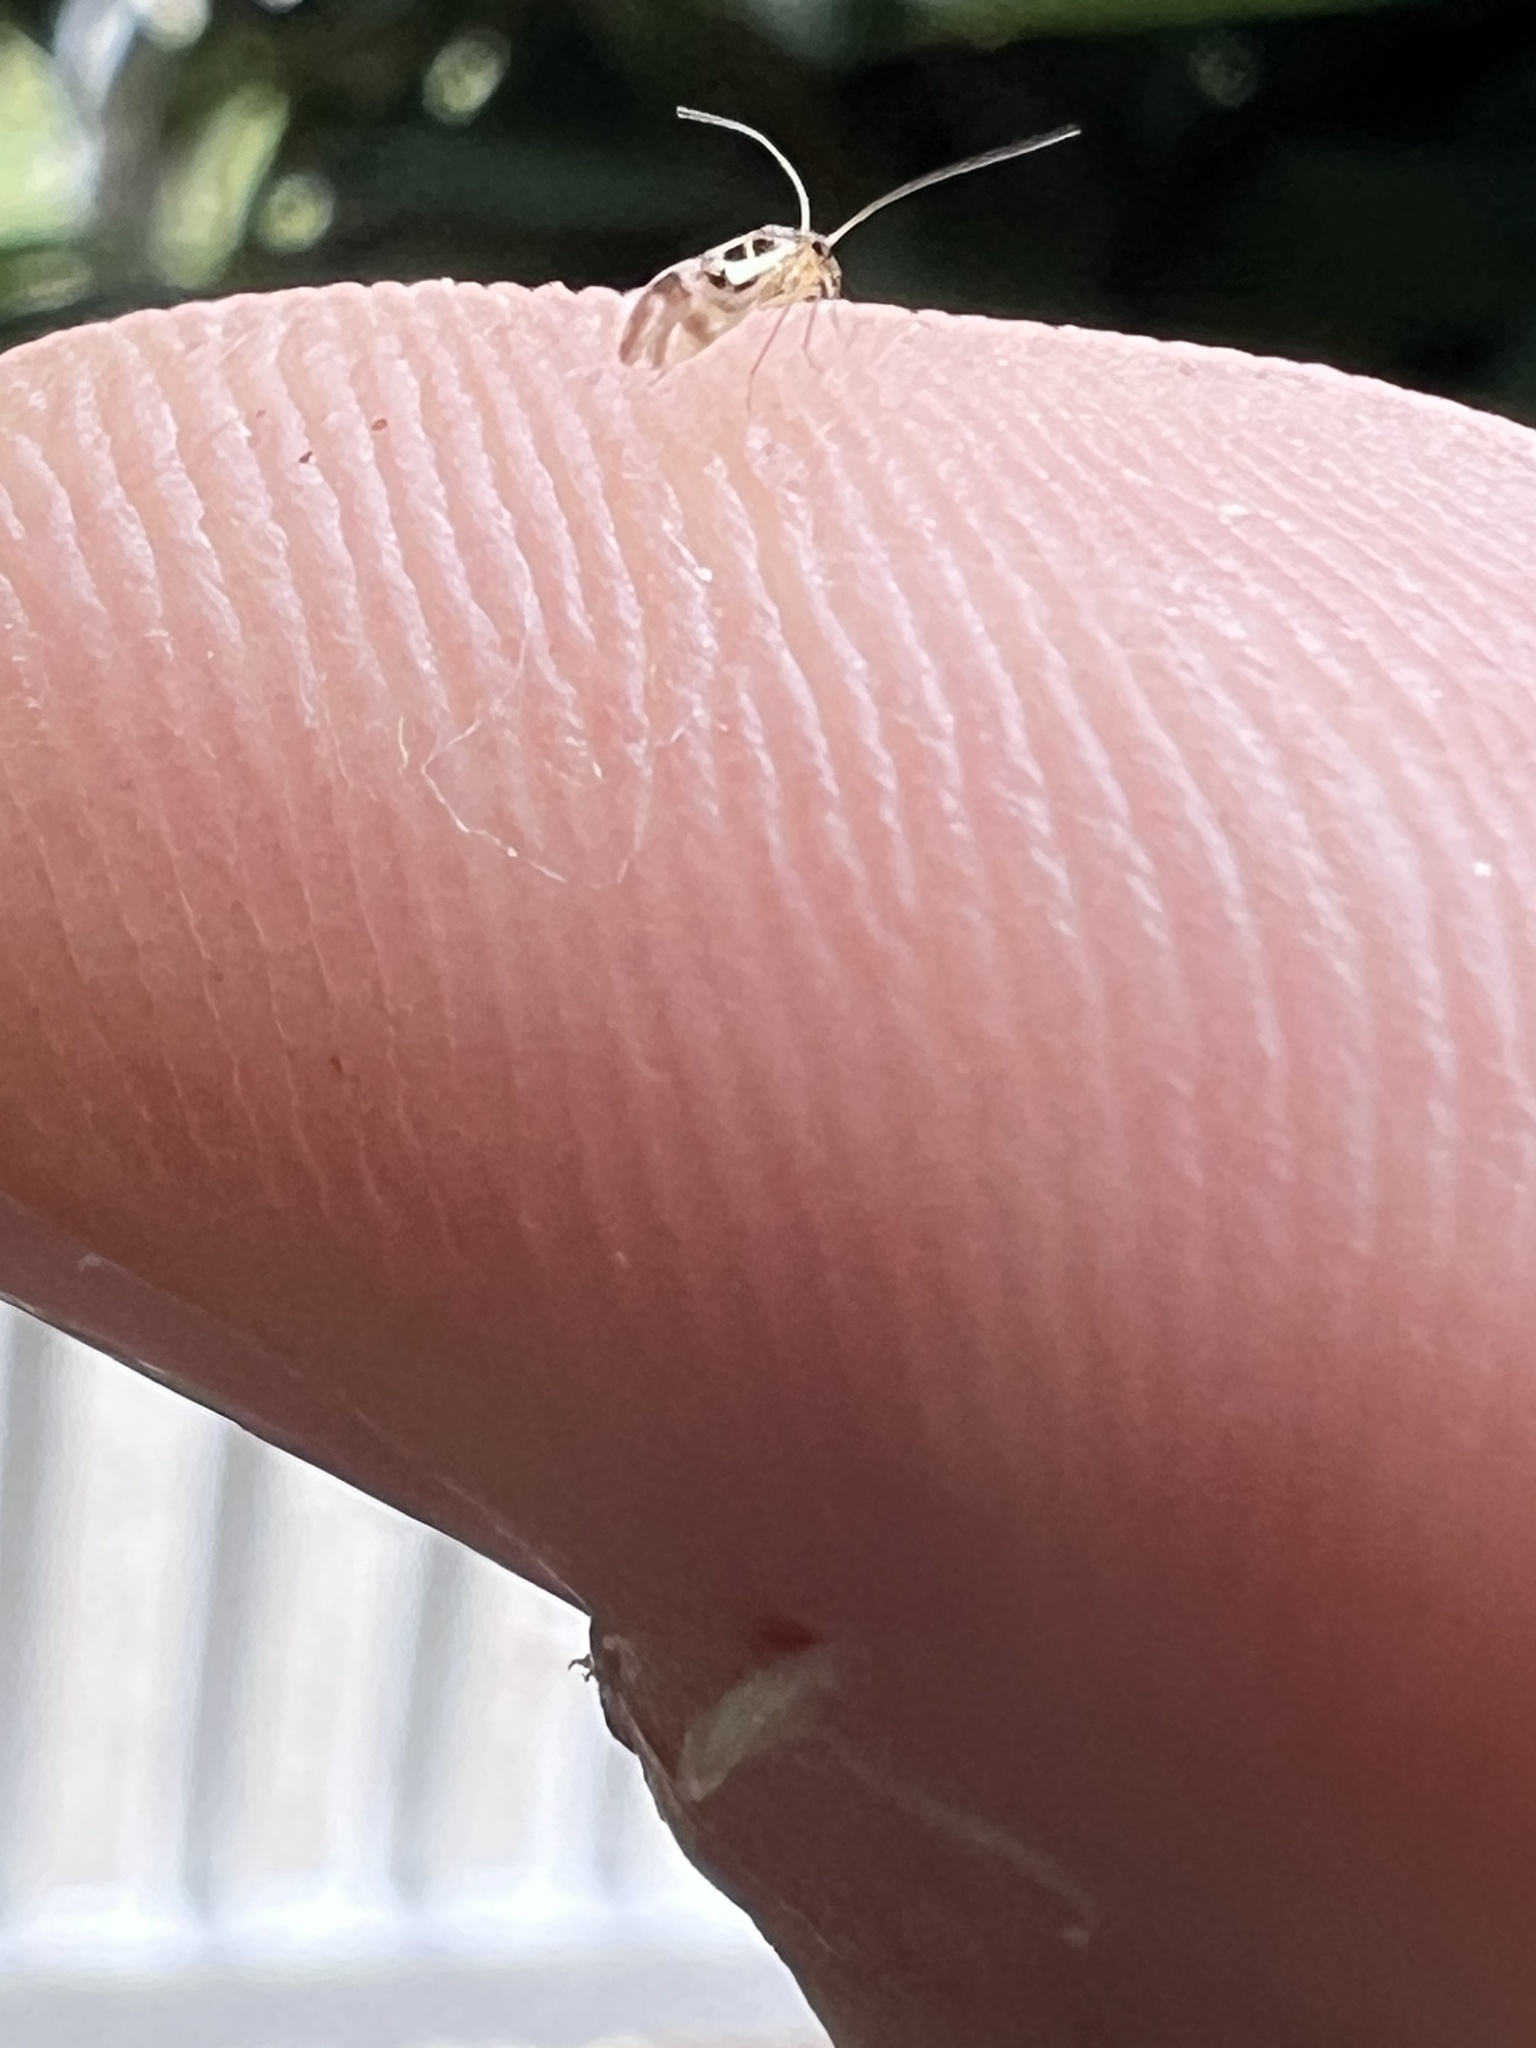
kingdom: Animalia
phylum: Arthropoda
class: Insecta
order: Psocodea
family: Stenopsocidae
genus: Graphopsocus
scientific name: Graphopsocus cruciatus
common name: Lizard bark louse
